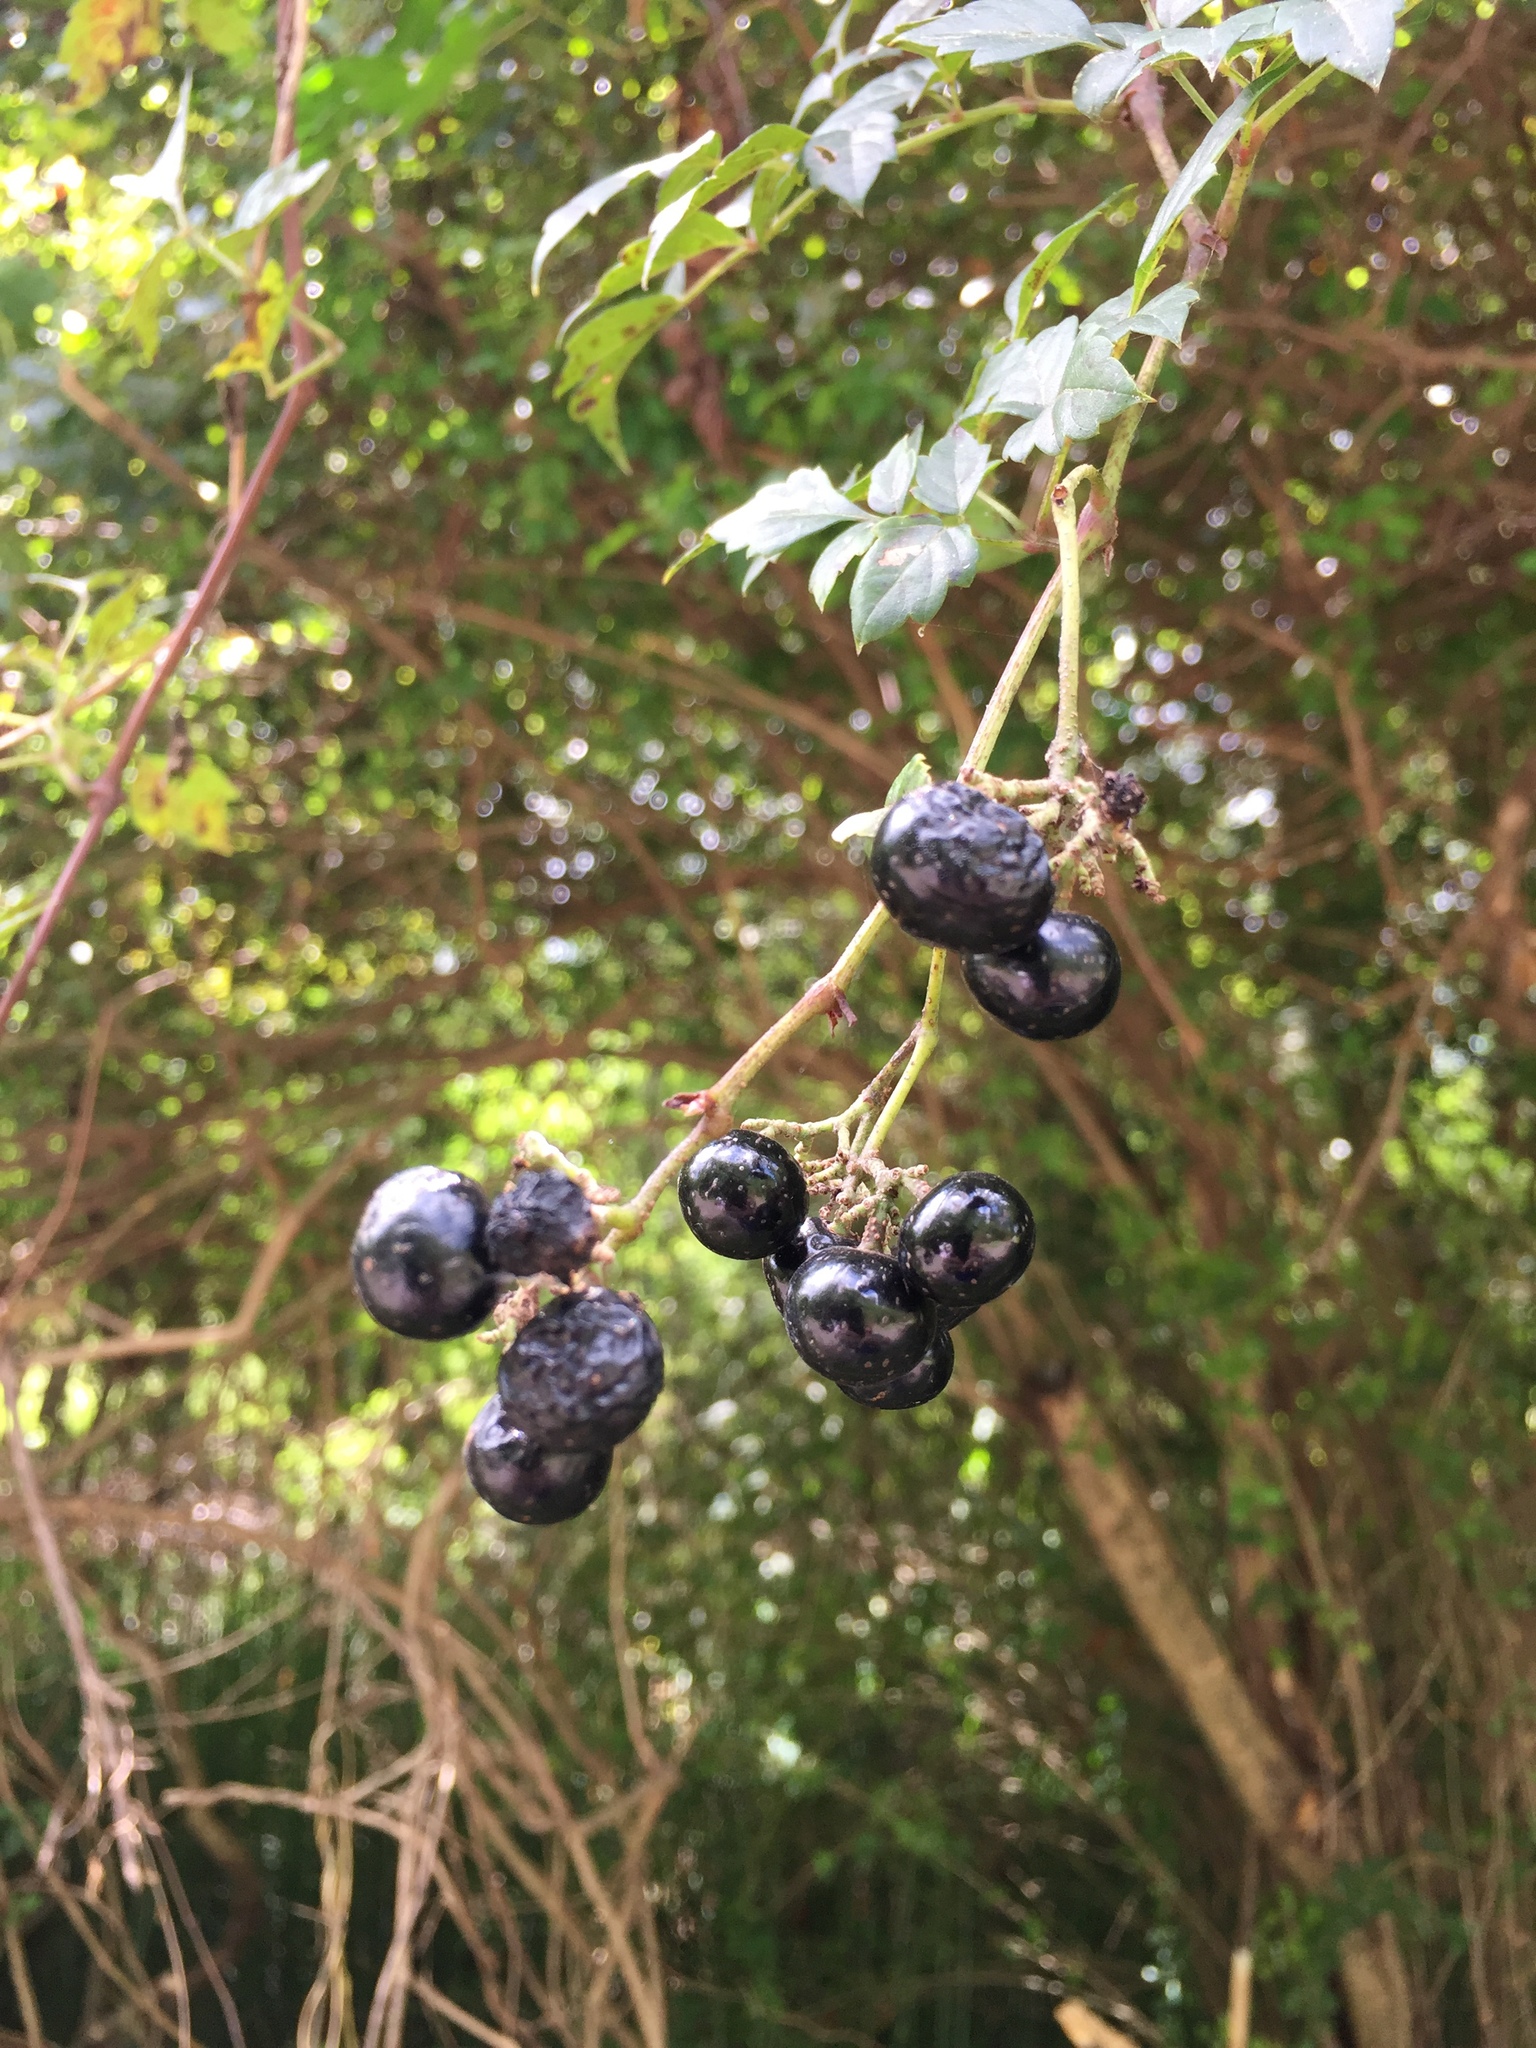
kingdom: Plantae
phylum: Tracheophyta
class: Magnoliopsida
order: Vitales
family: Vitaceae
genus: Nekemias
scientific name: Nekemias arborea
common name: Peppervine
